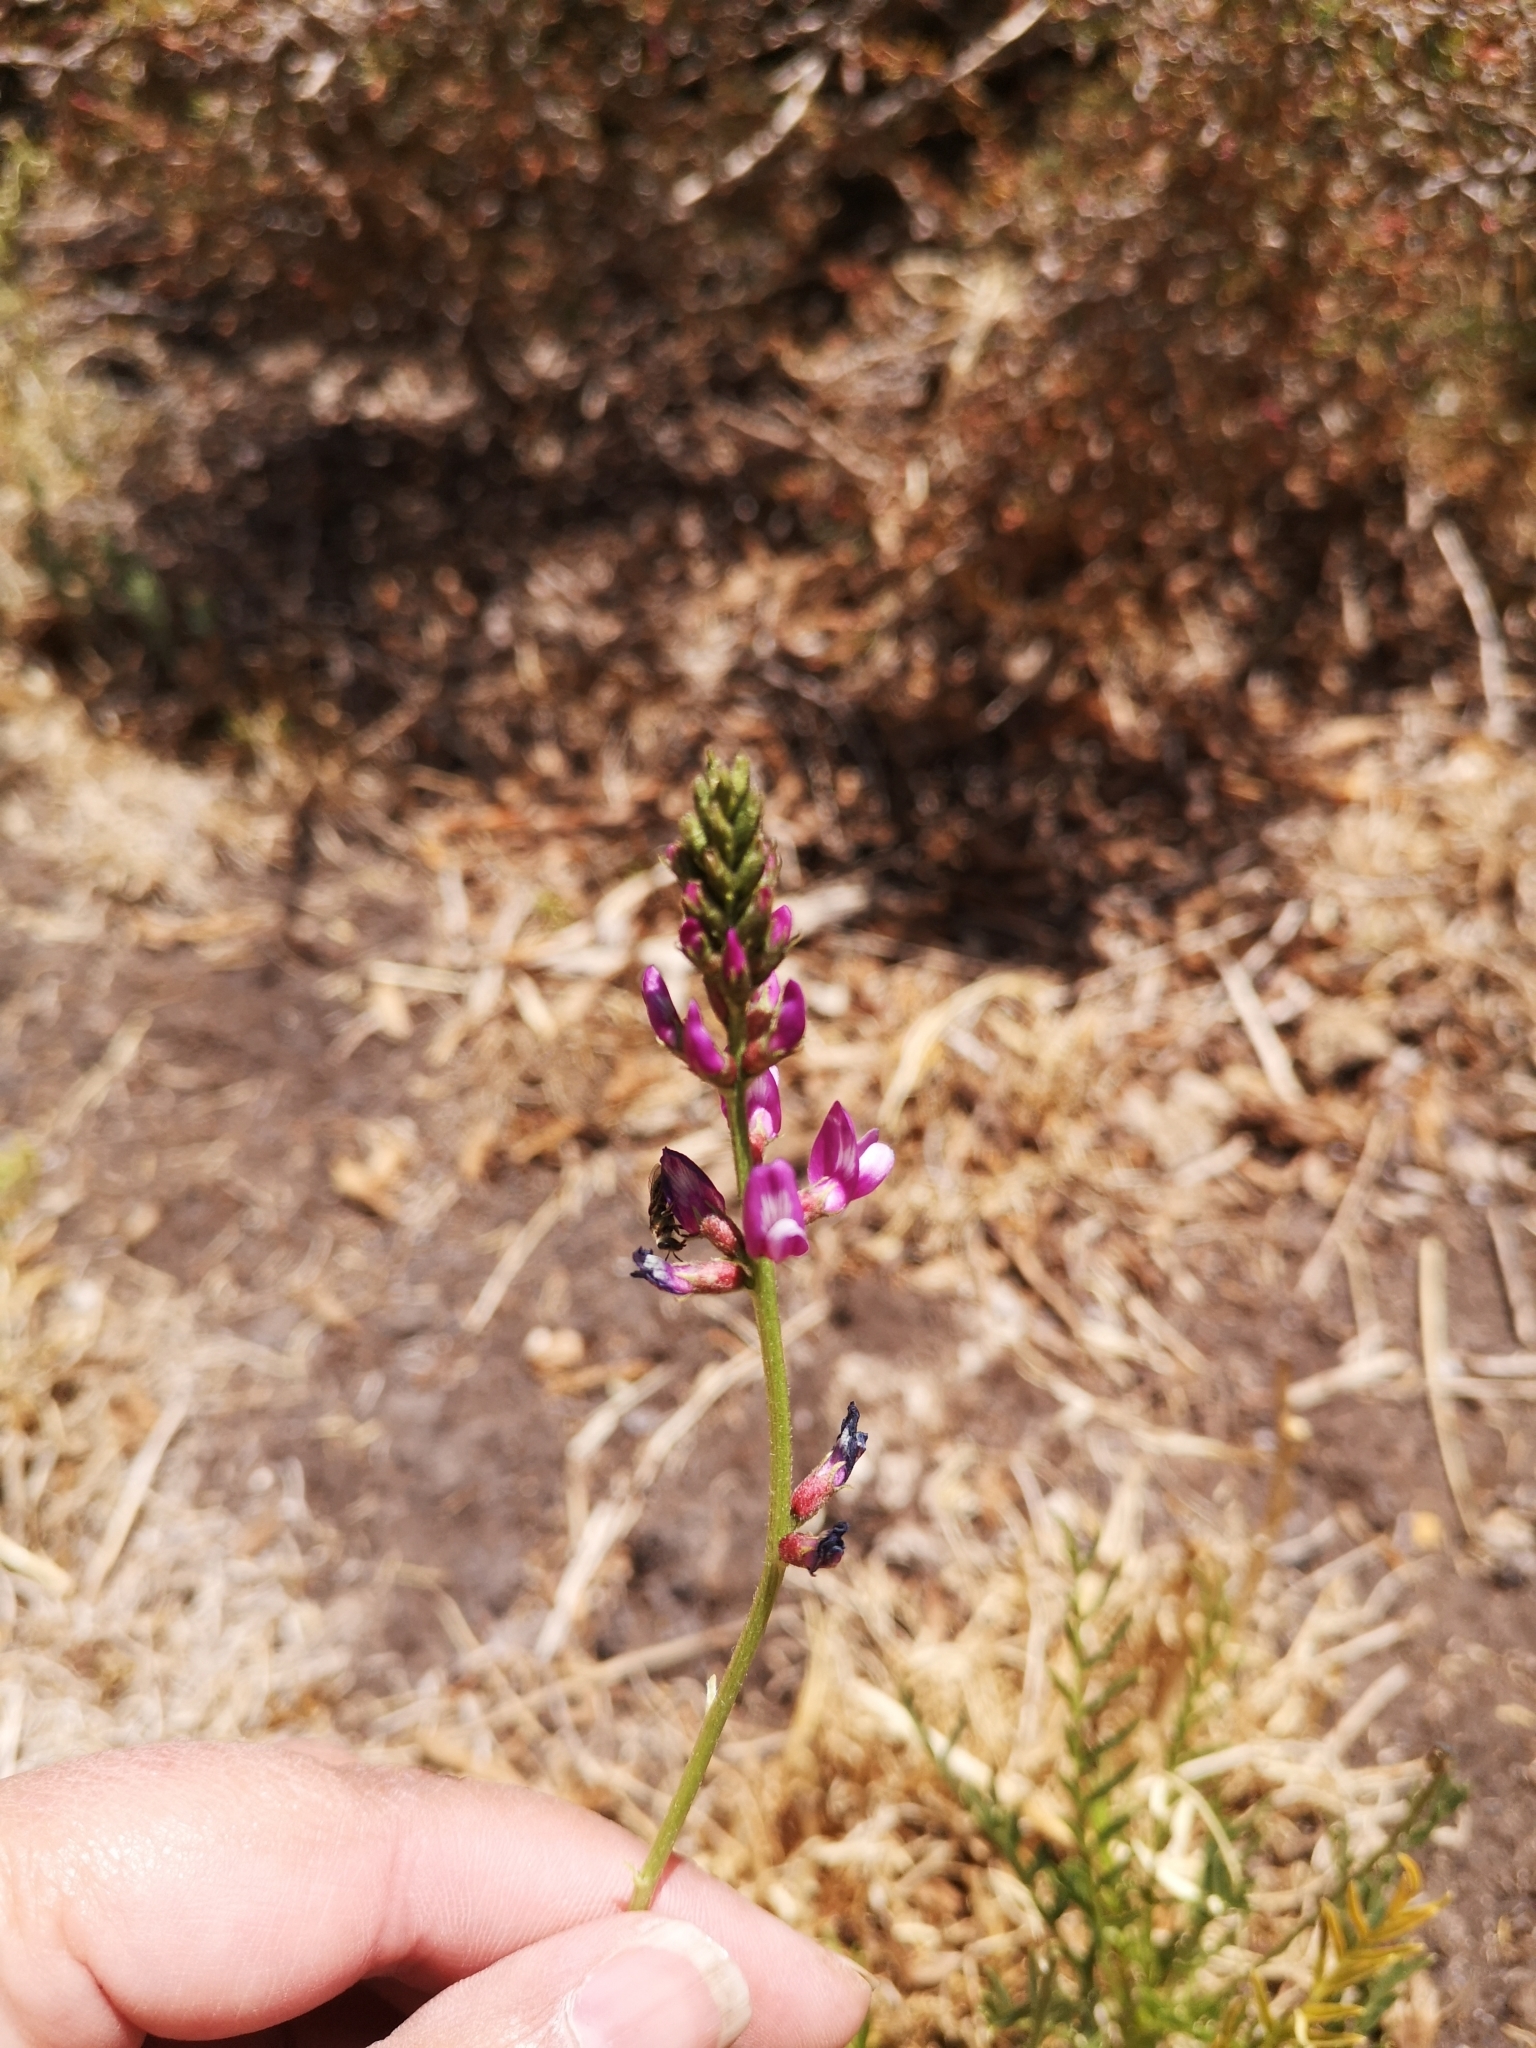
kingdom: Plantae
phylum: Tracheophyta
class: Magnoliopsida
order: Fabales
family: Fabaceae
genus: Astragalus
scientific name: Astragalus berterianus
